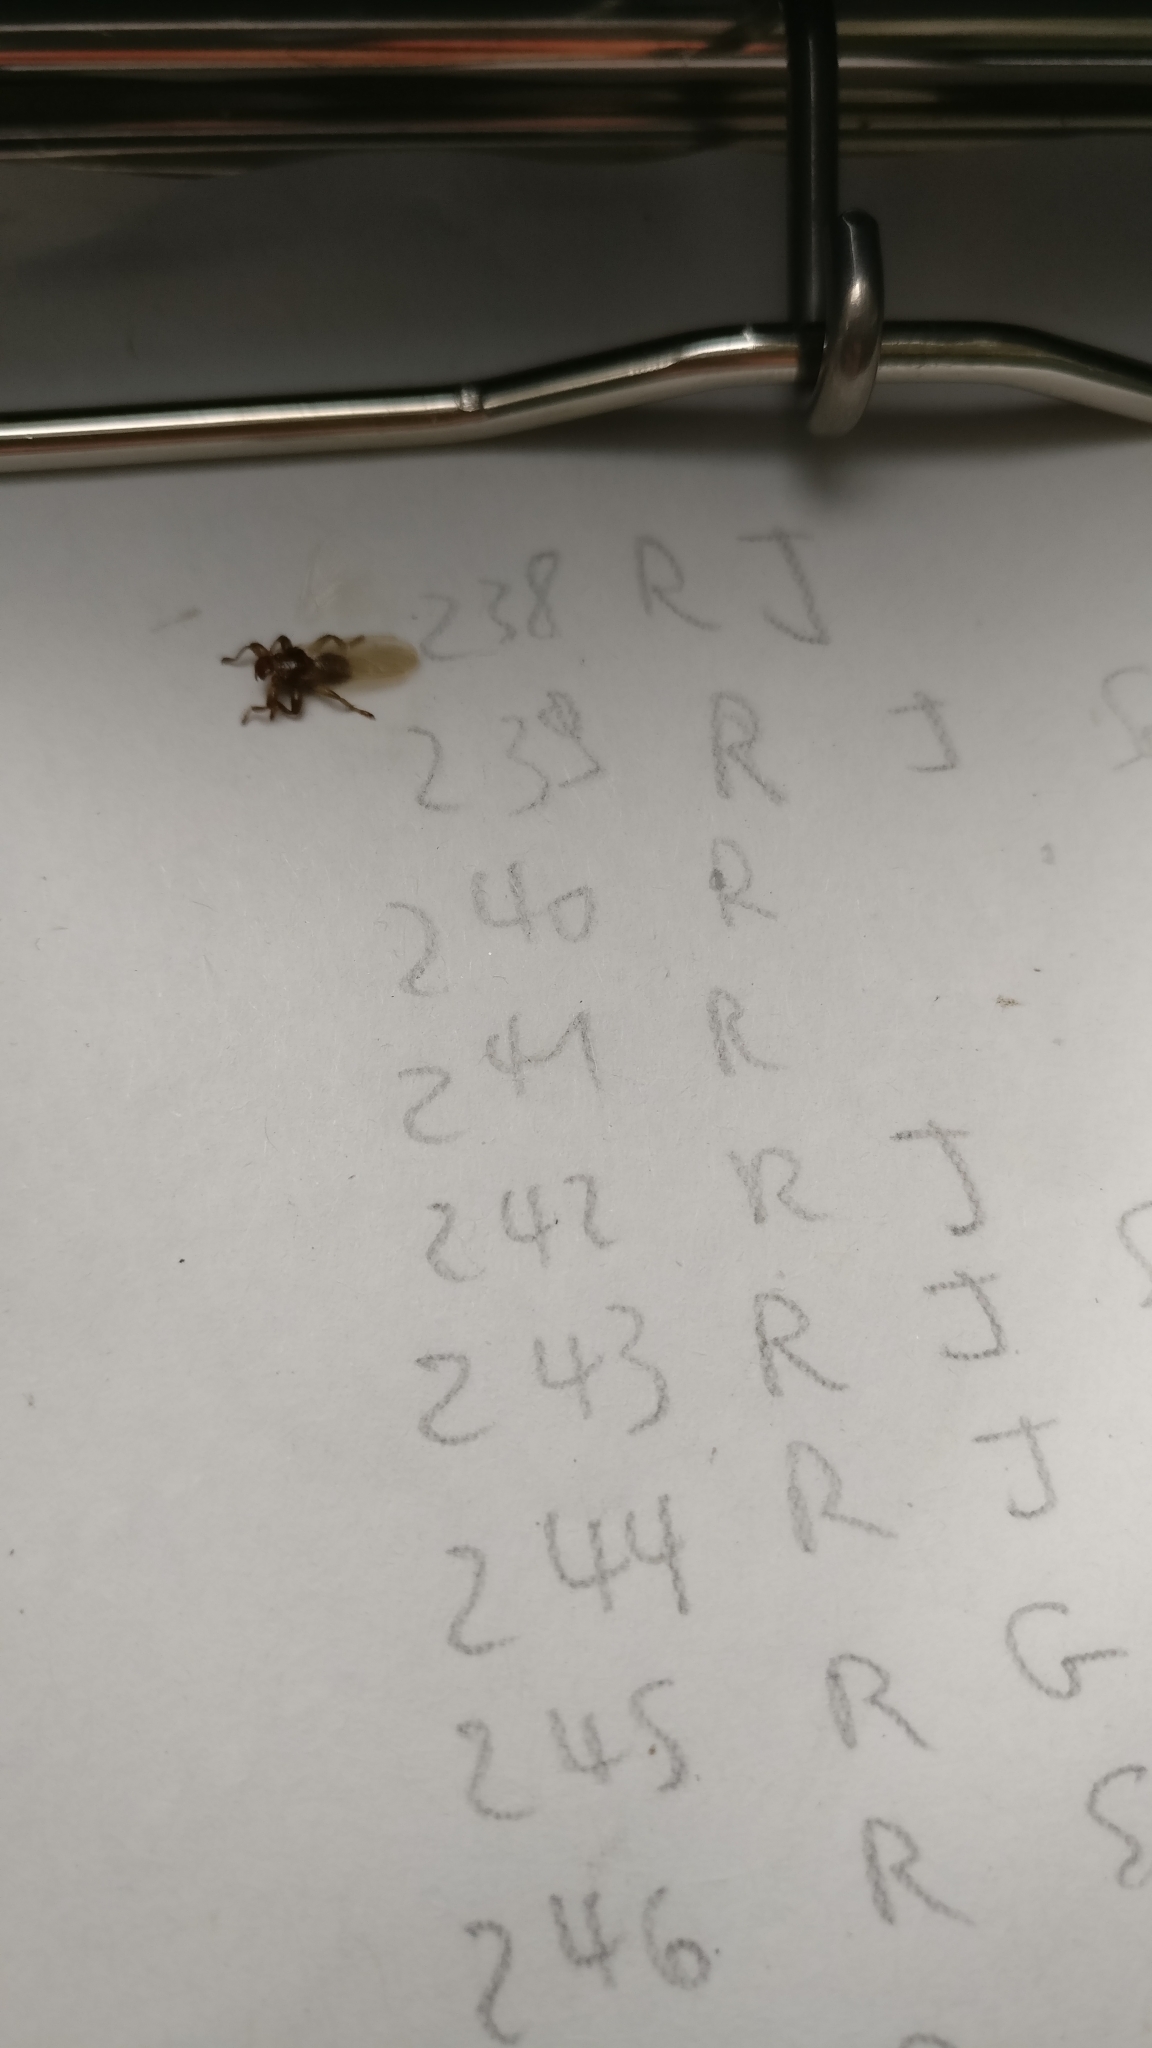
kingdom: Animalia
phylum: Arthropoda
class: Insecta
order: Diptera
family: Hippoboscidae
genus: Lipoptena
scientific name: Lipoptena
